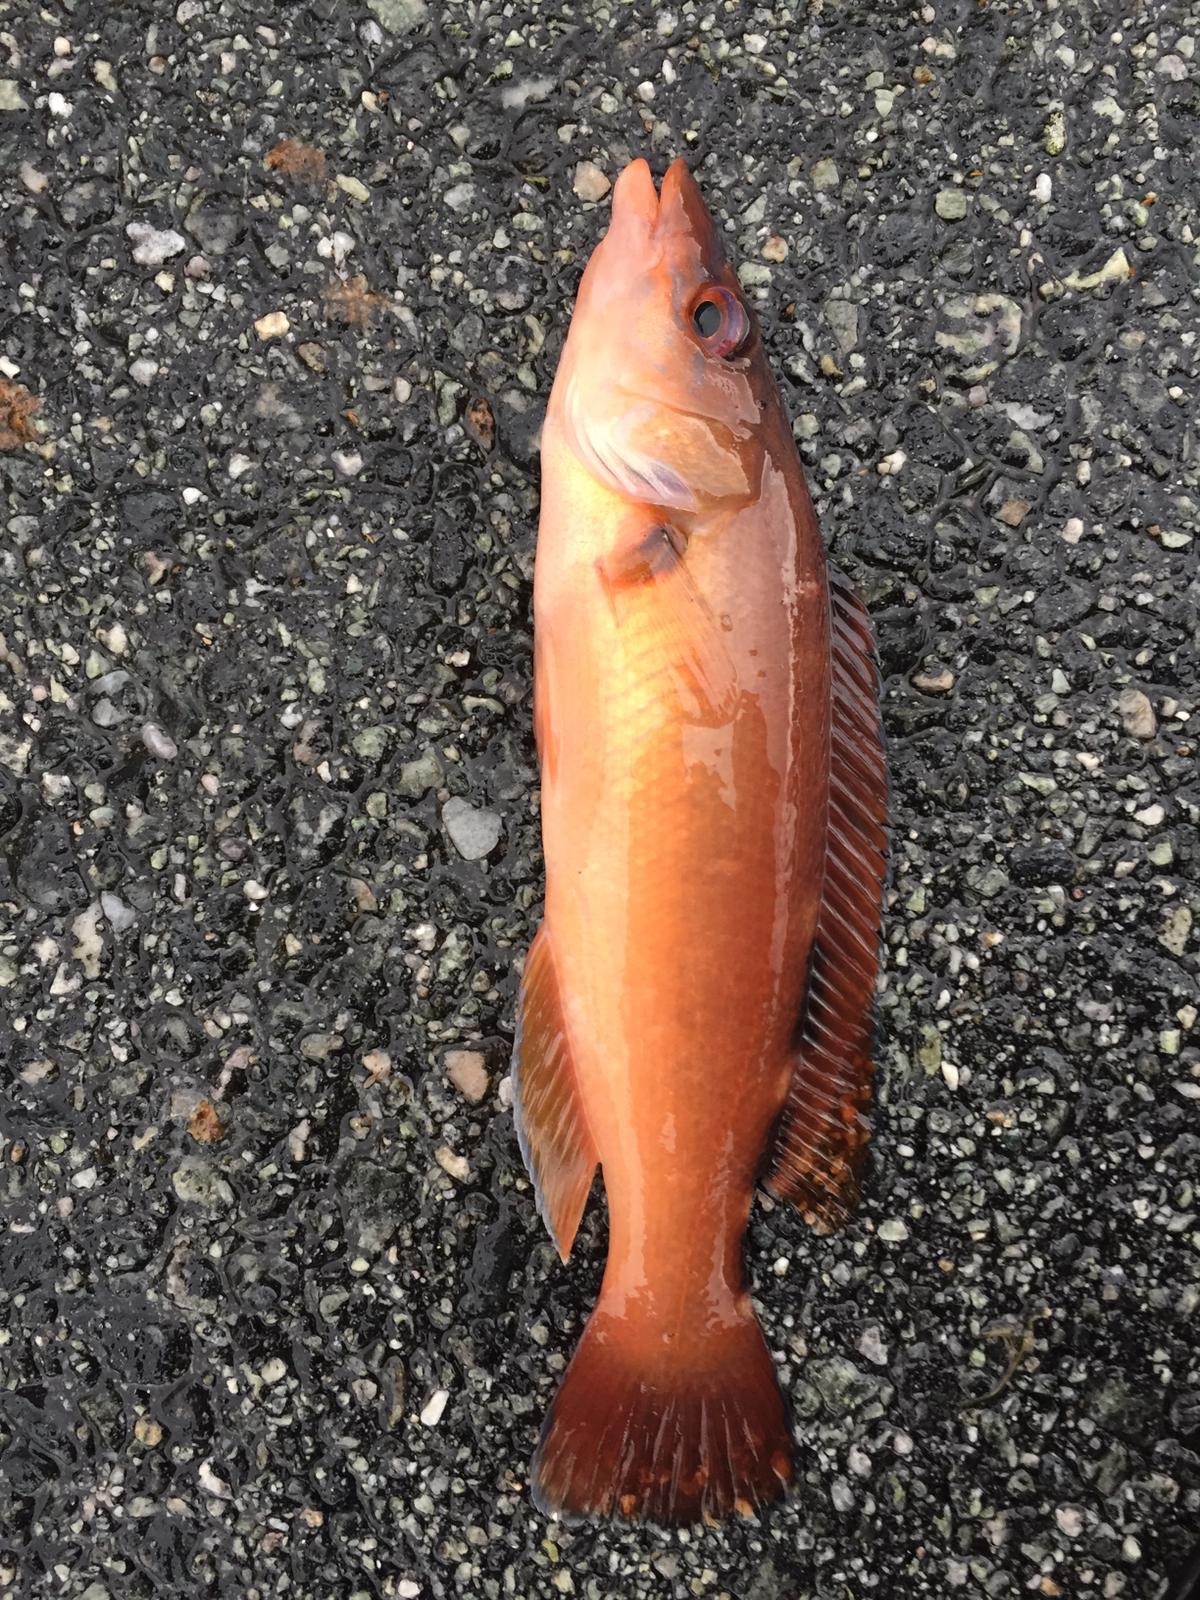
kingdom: Animalia
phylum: Chordata
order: Perciformes
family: Labridae
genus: Labrus
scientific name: Labrus mixtus
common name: Cuckoo wrasse
